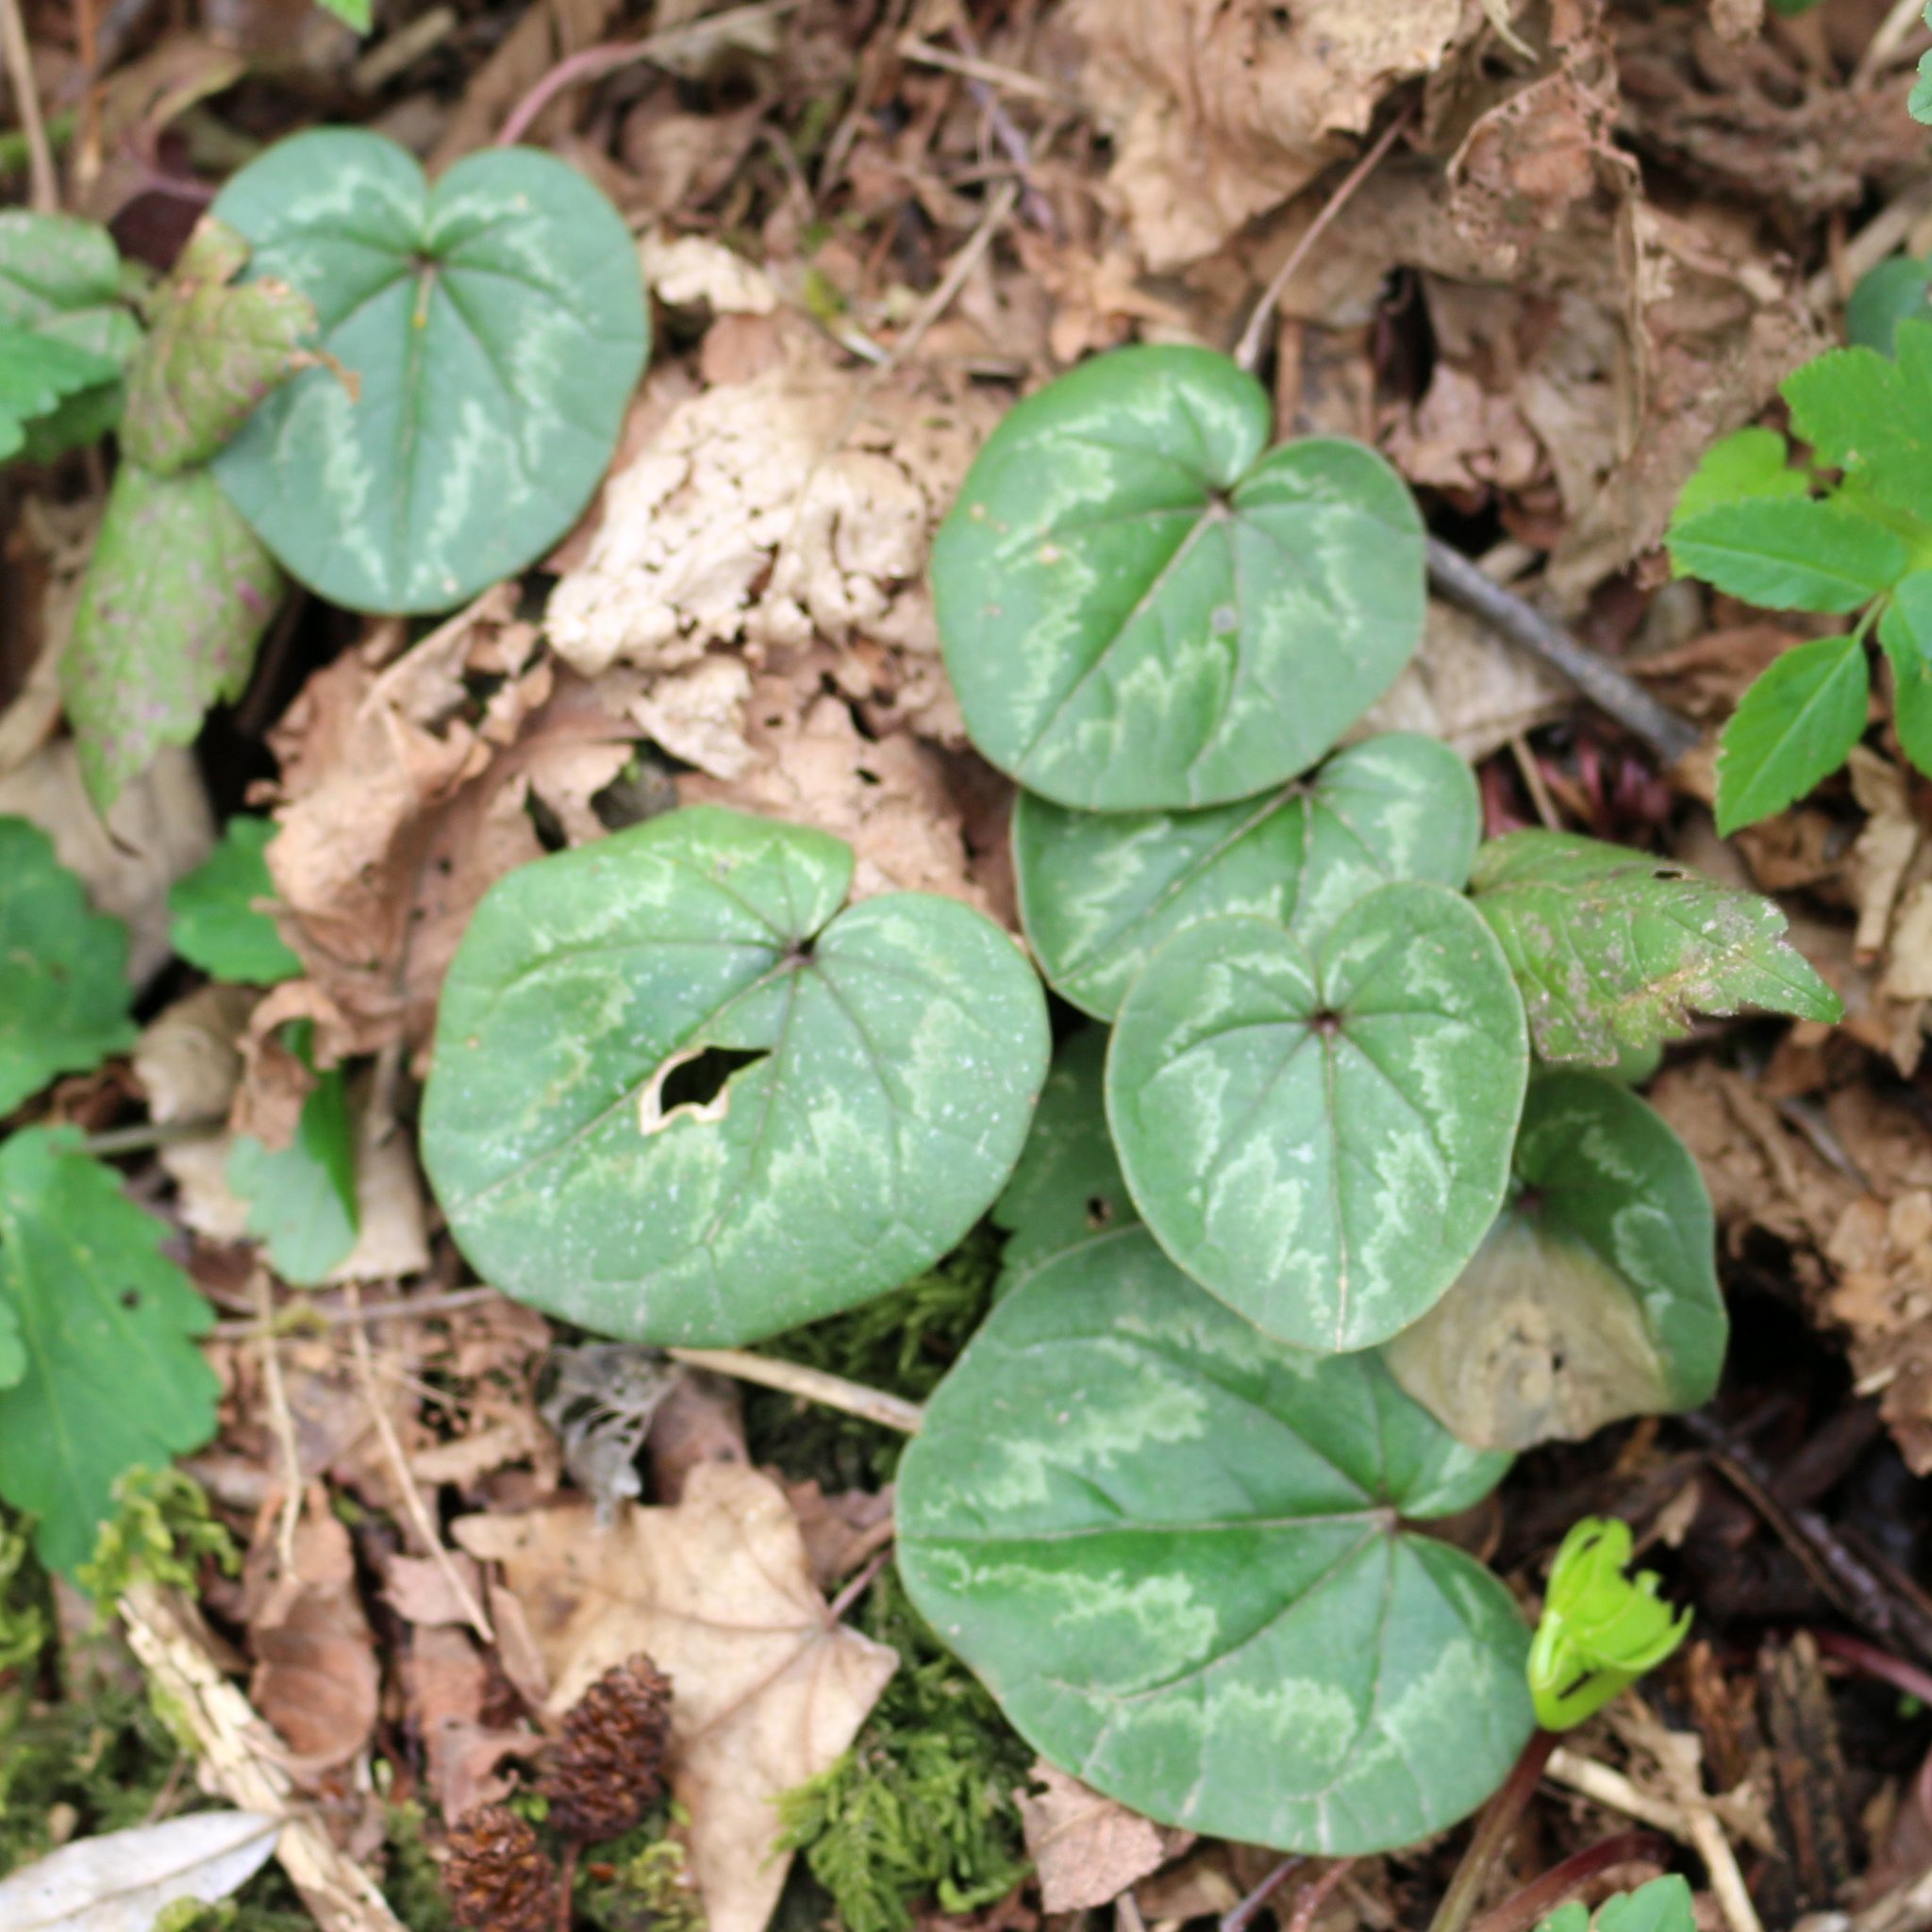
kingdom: Plantae
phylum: Tracheophyta
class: Magnoliopsida
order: Ericales
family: Primulaceae
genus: Cyclamen
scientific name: Cyclamen coum
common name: Eastern sowbread
